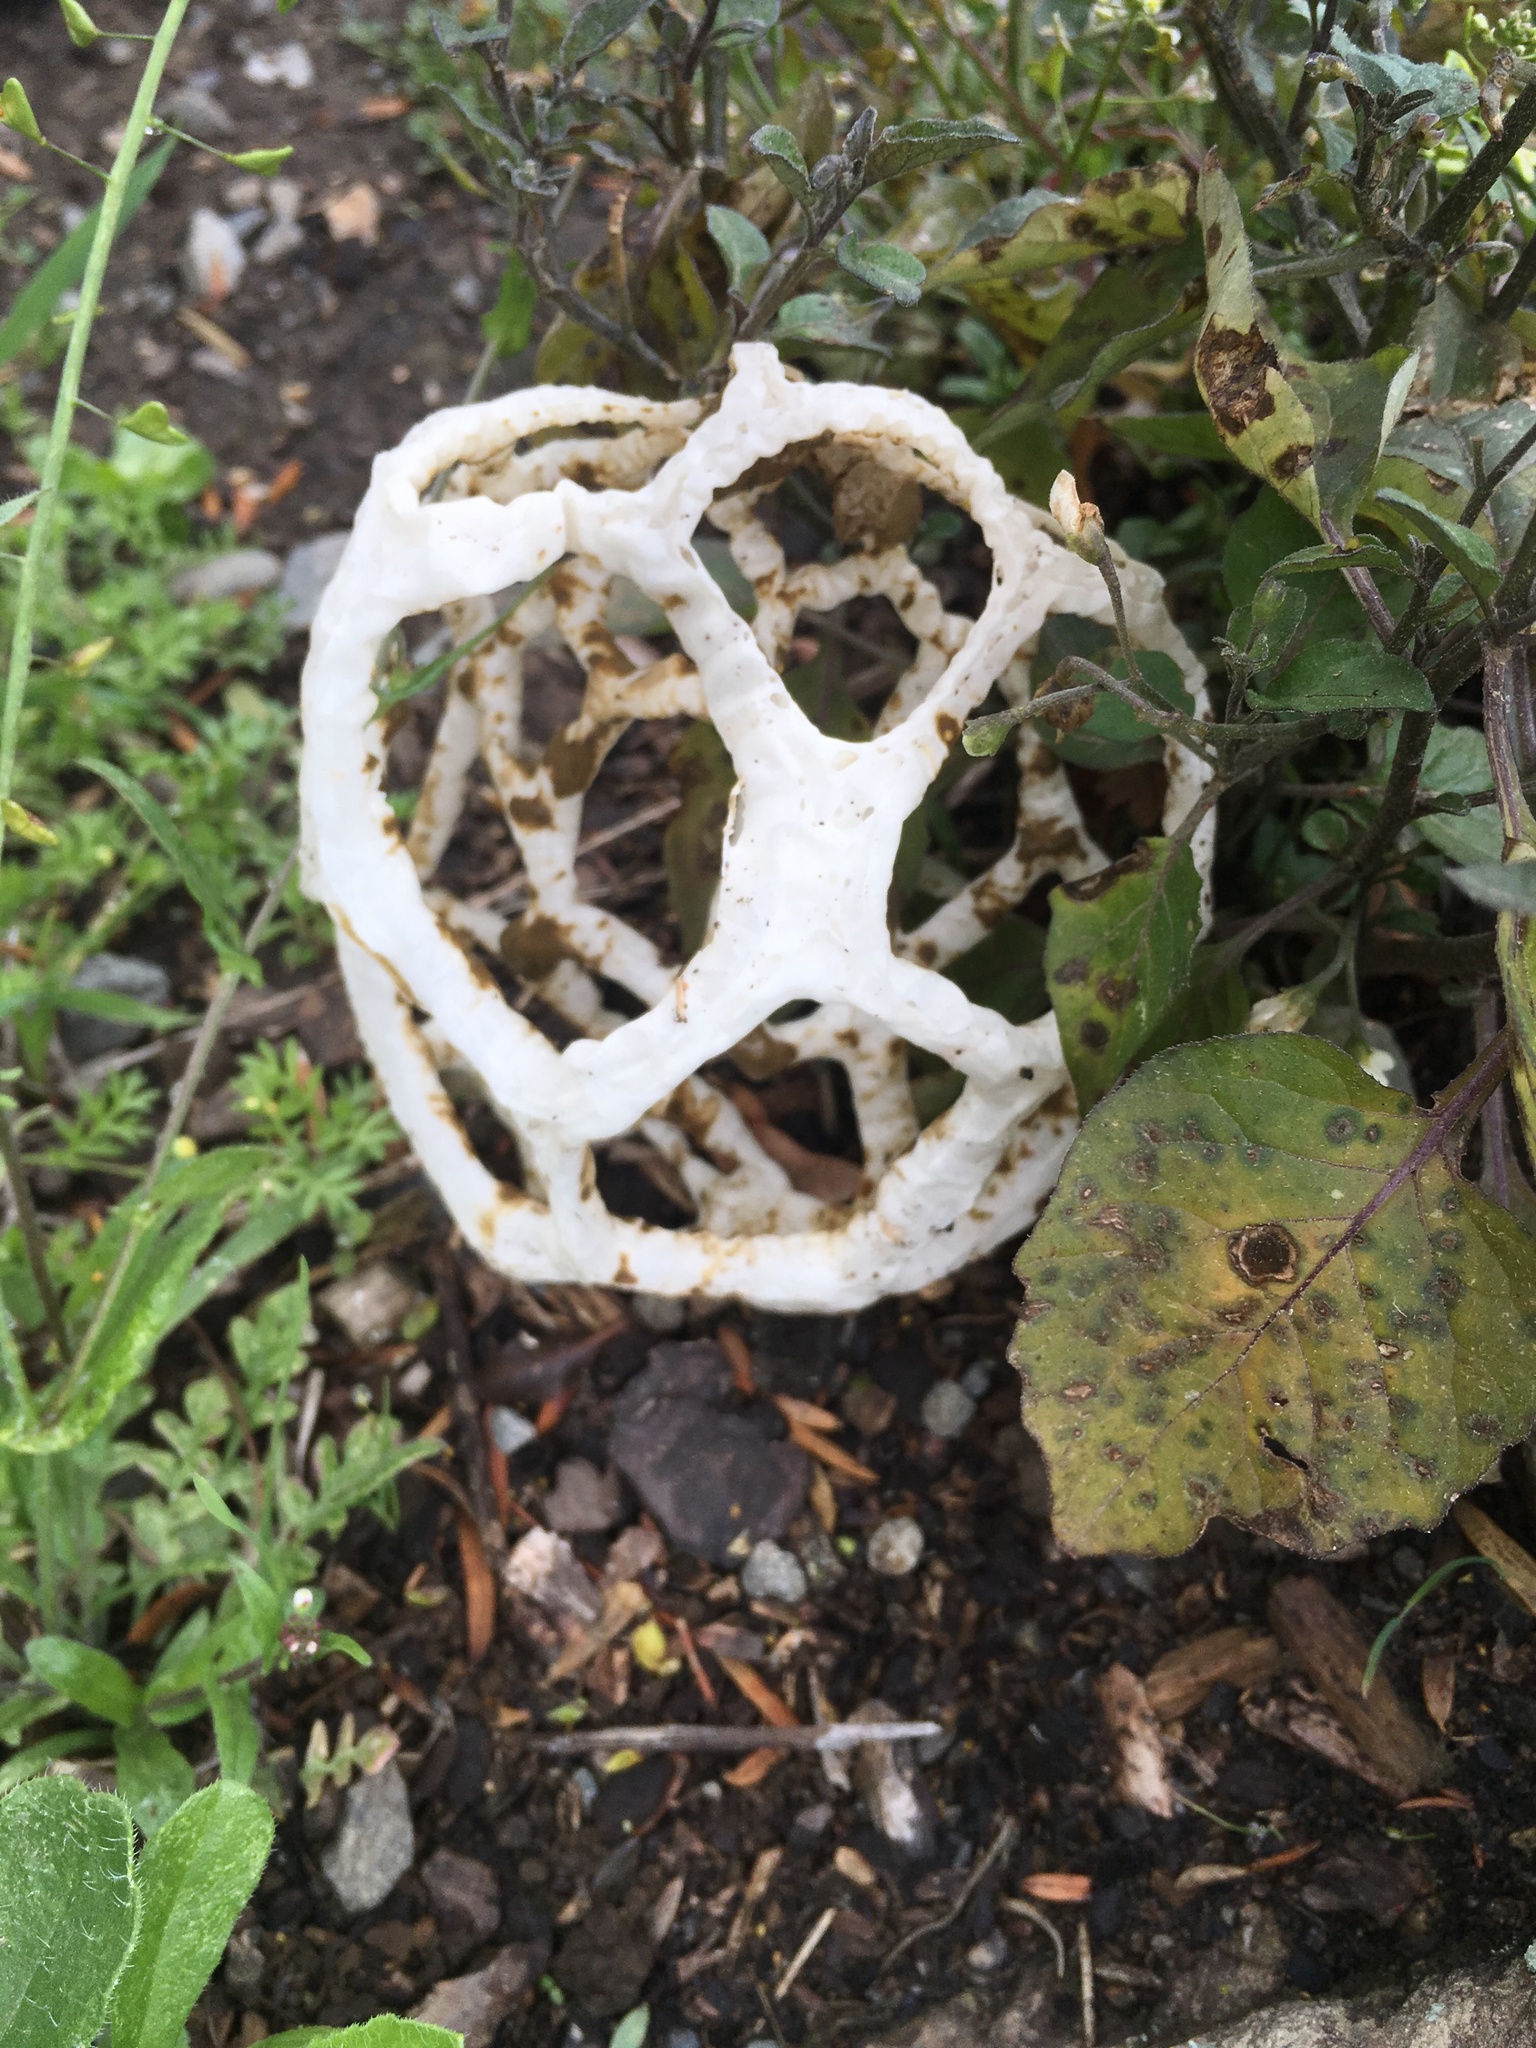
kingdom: Fungi
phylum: Basidiomycota
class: Agaricomycetes
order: Phallales
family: Phallaceae
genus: Ileodictyon
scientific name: Ileodictyon cibarium
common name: Basket fungus
